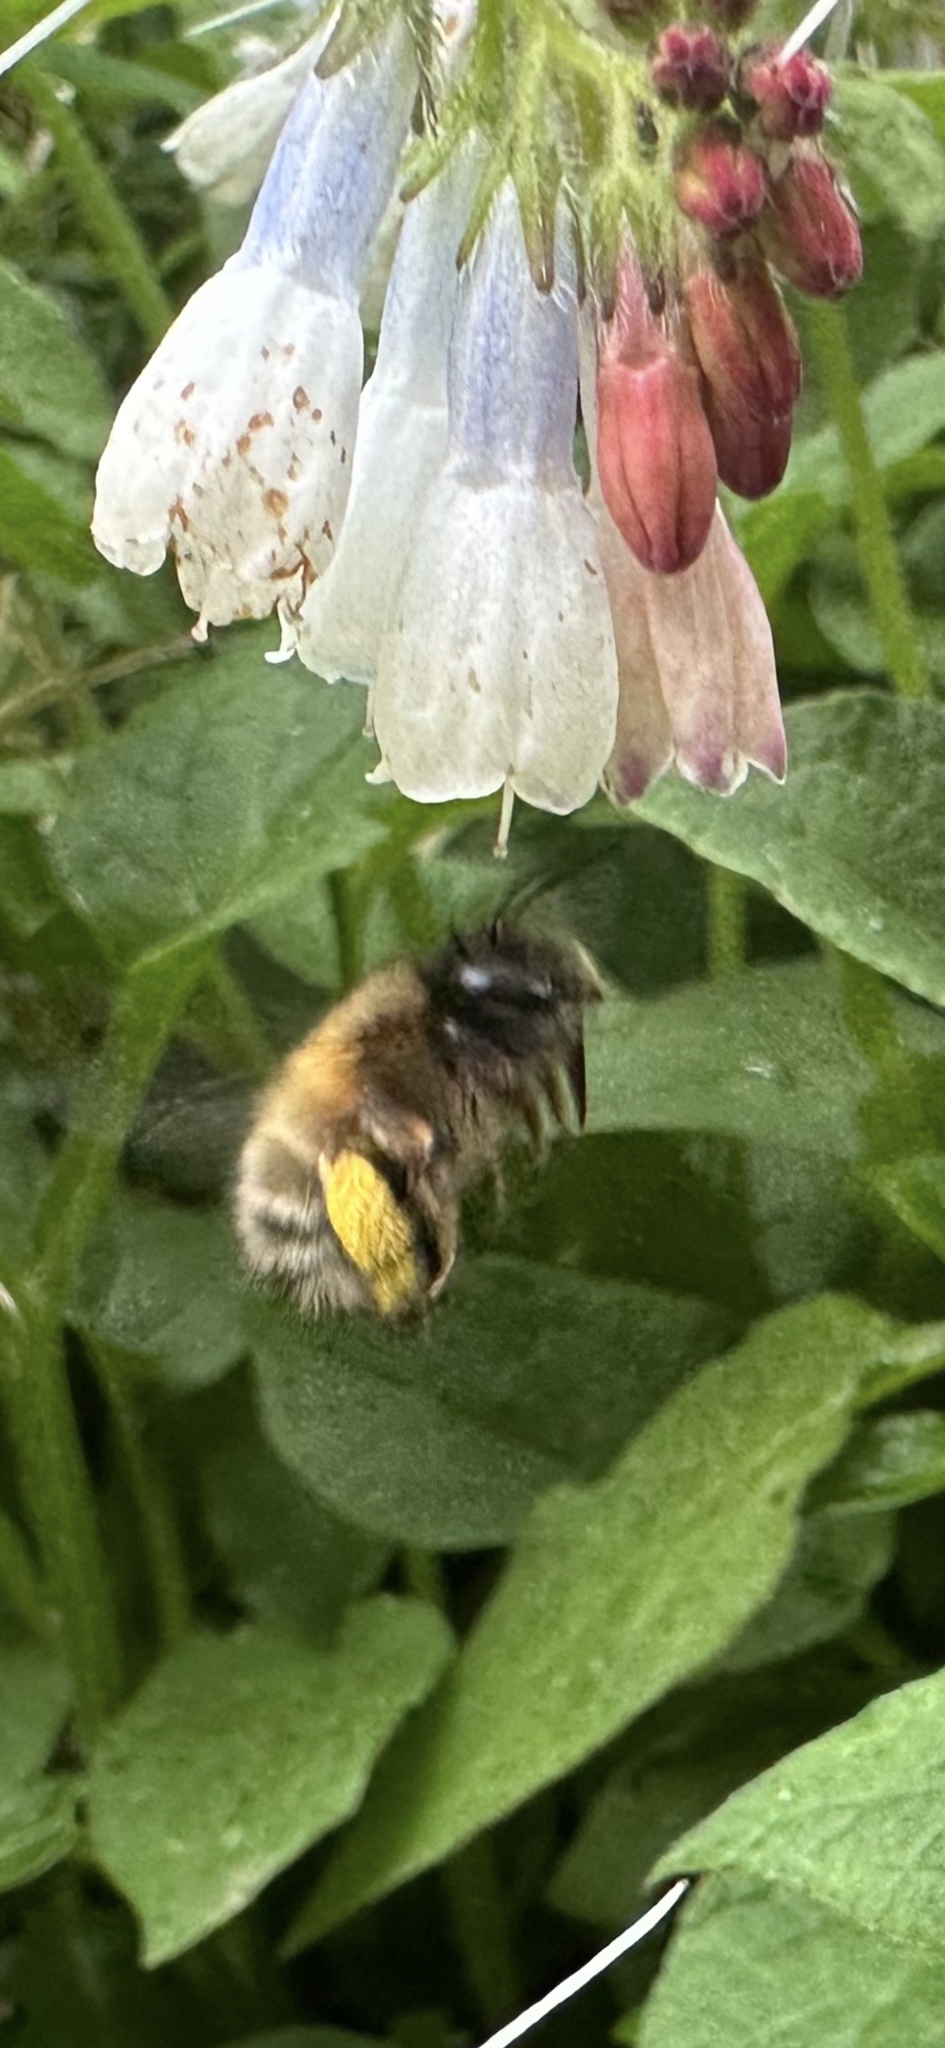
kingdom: Animalia
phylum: Arthropoda
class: Insecta
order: Hymenoptera
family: Apidae
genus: Anthophora
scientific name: Anthophora plumipes
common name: Hairy-footed flower bee
